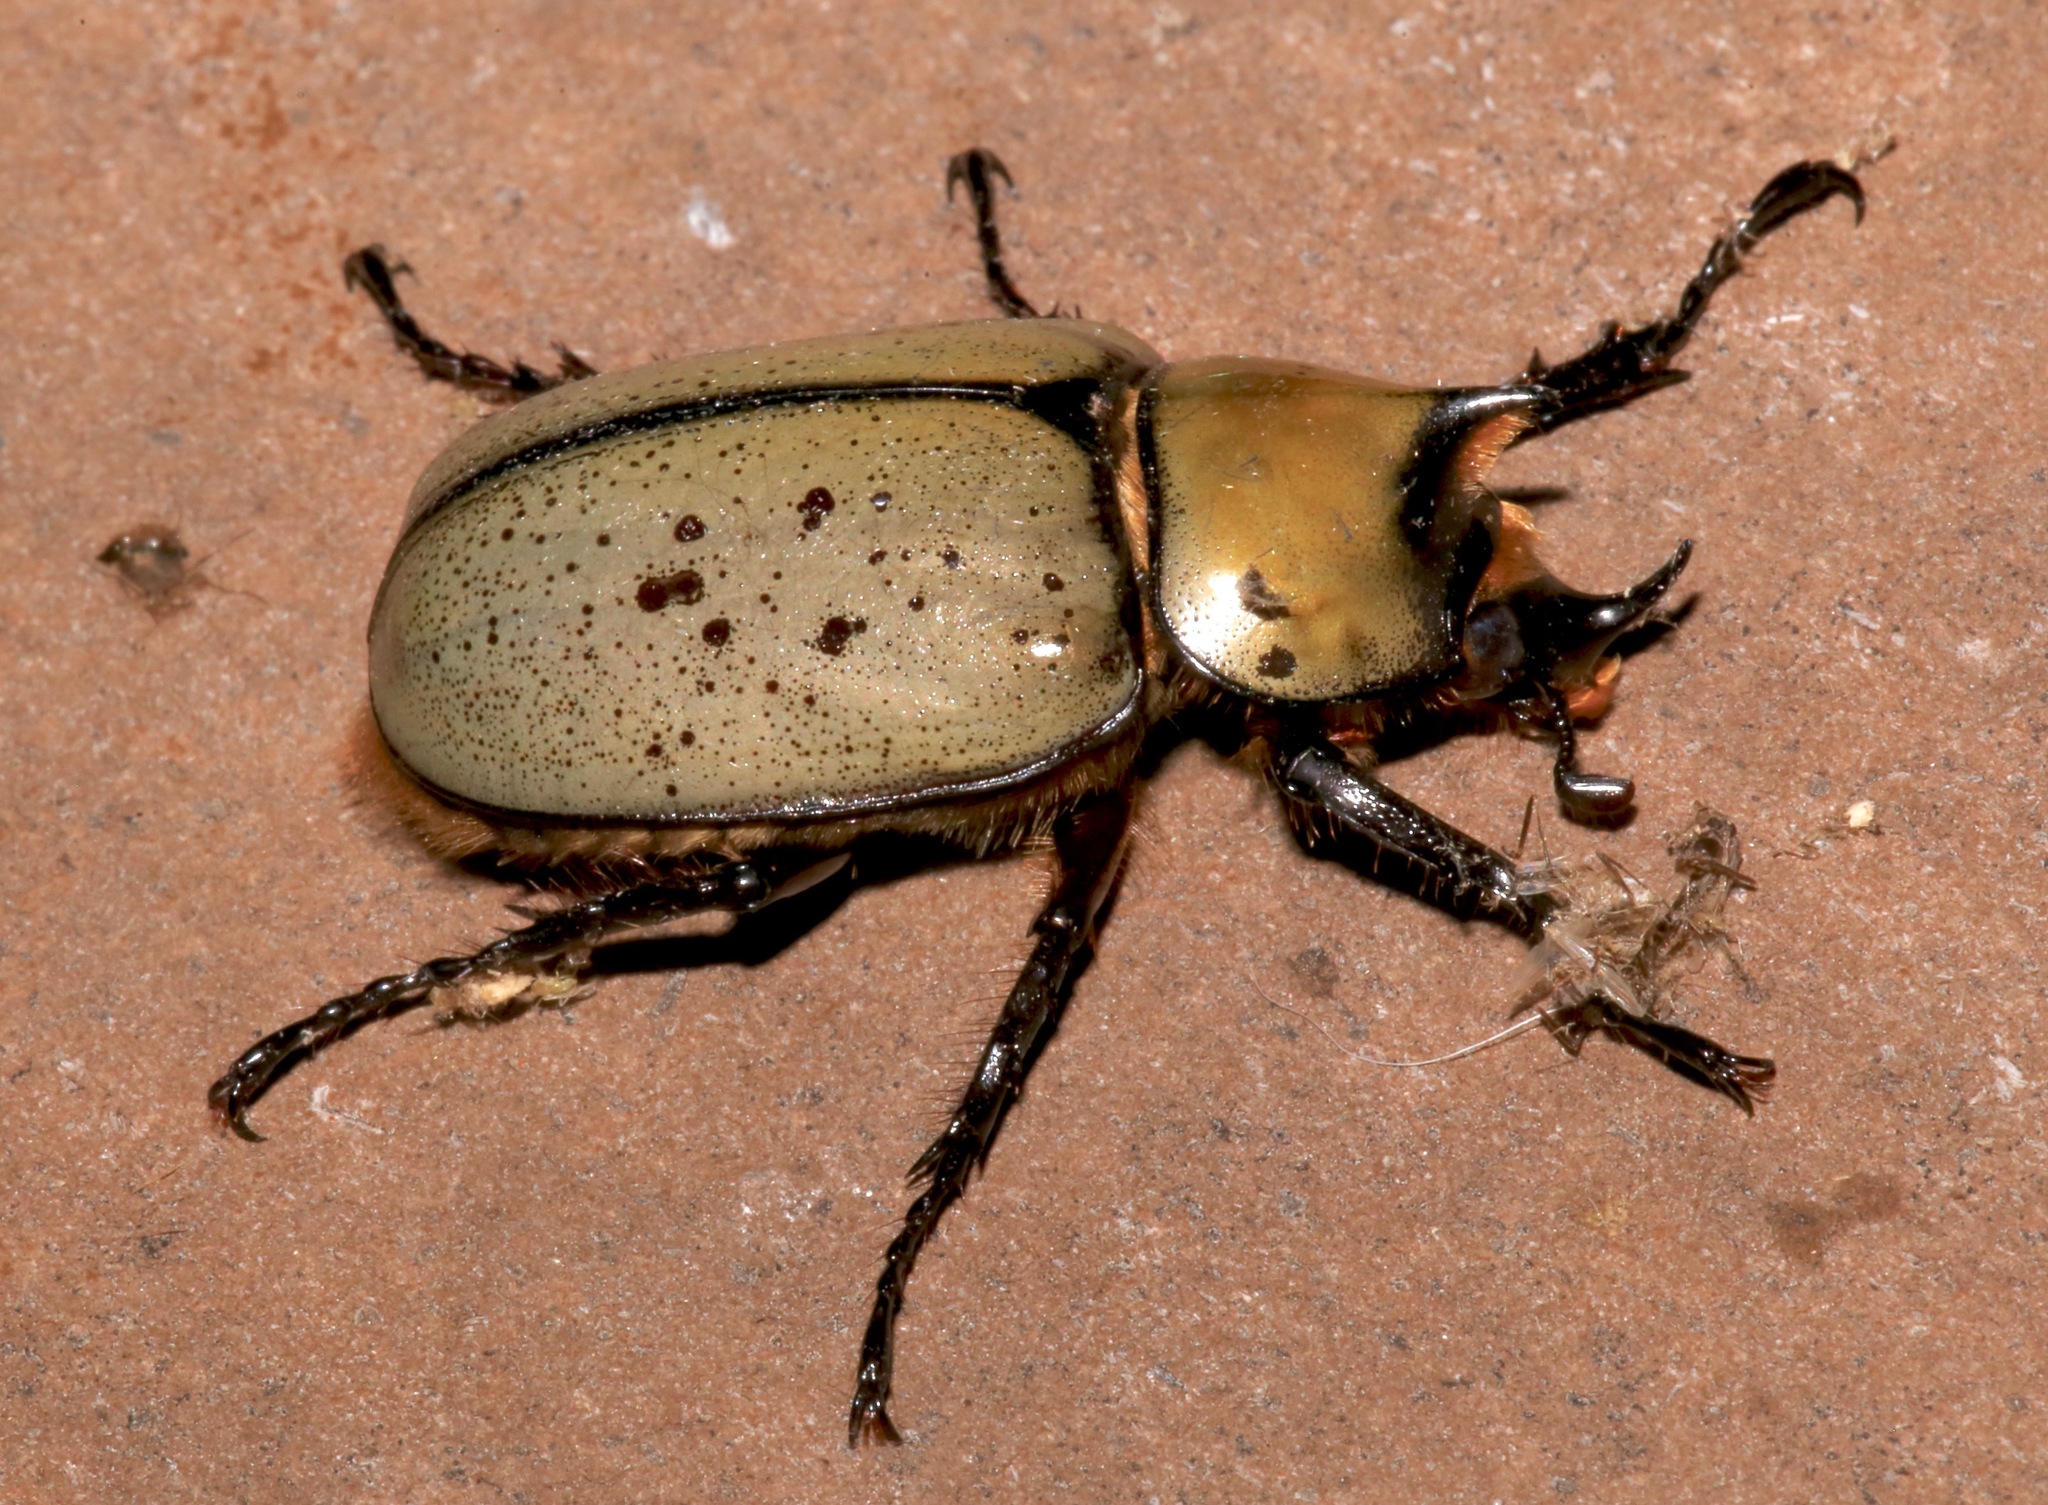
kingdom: Animalia
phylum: Arthropoda
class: Insecta
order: Coleoptera
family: Scarabaeidae
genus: Dynastes
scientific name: Dynastes tityus
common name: Eastern hercules beetle
